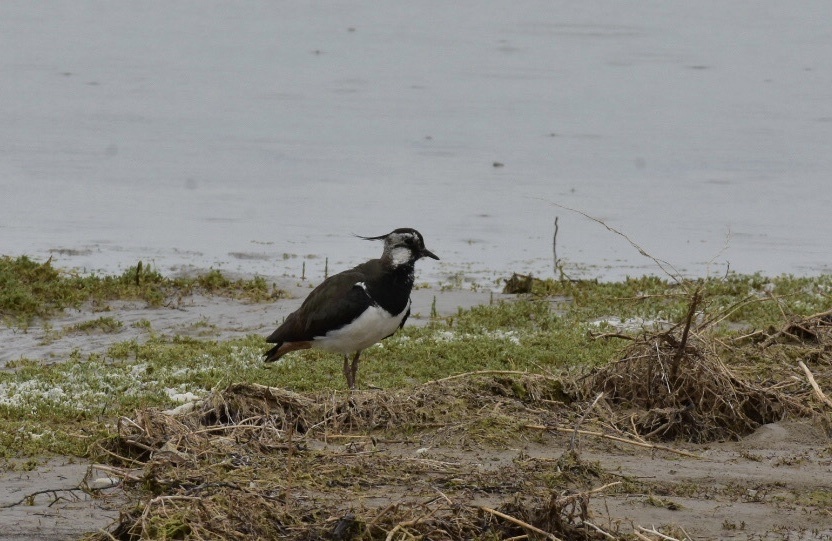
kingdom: Animalia
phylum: Chordata
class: Aves
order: Charadriiformes
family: Charadriidae
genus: Vanellus
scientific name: Vanellus vanellus
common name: Northern lapwing
